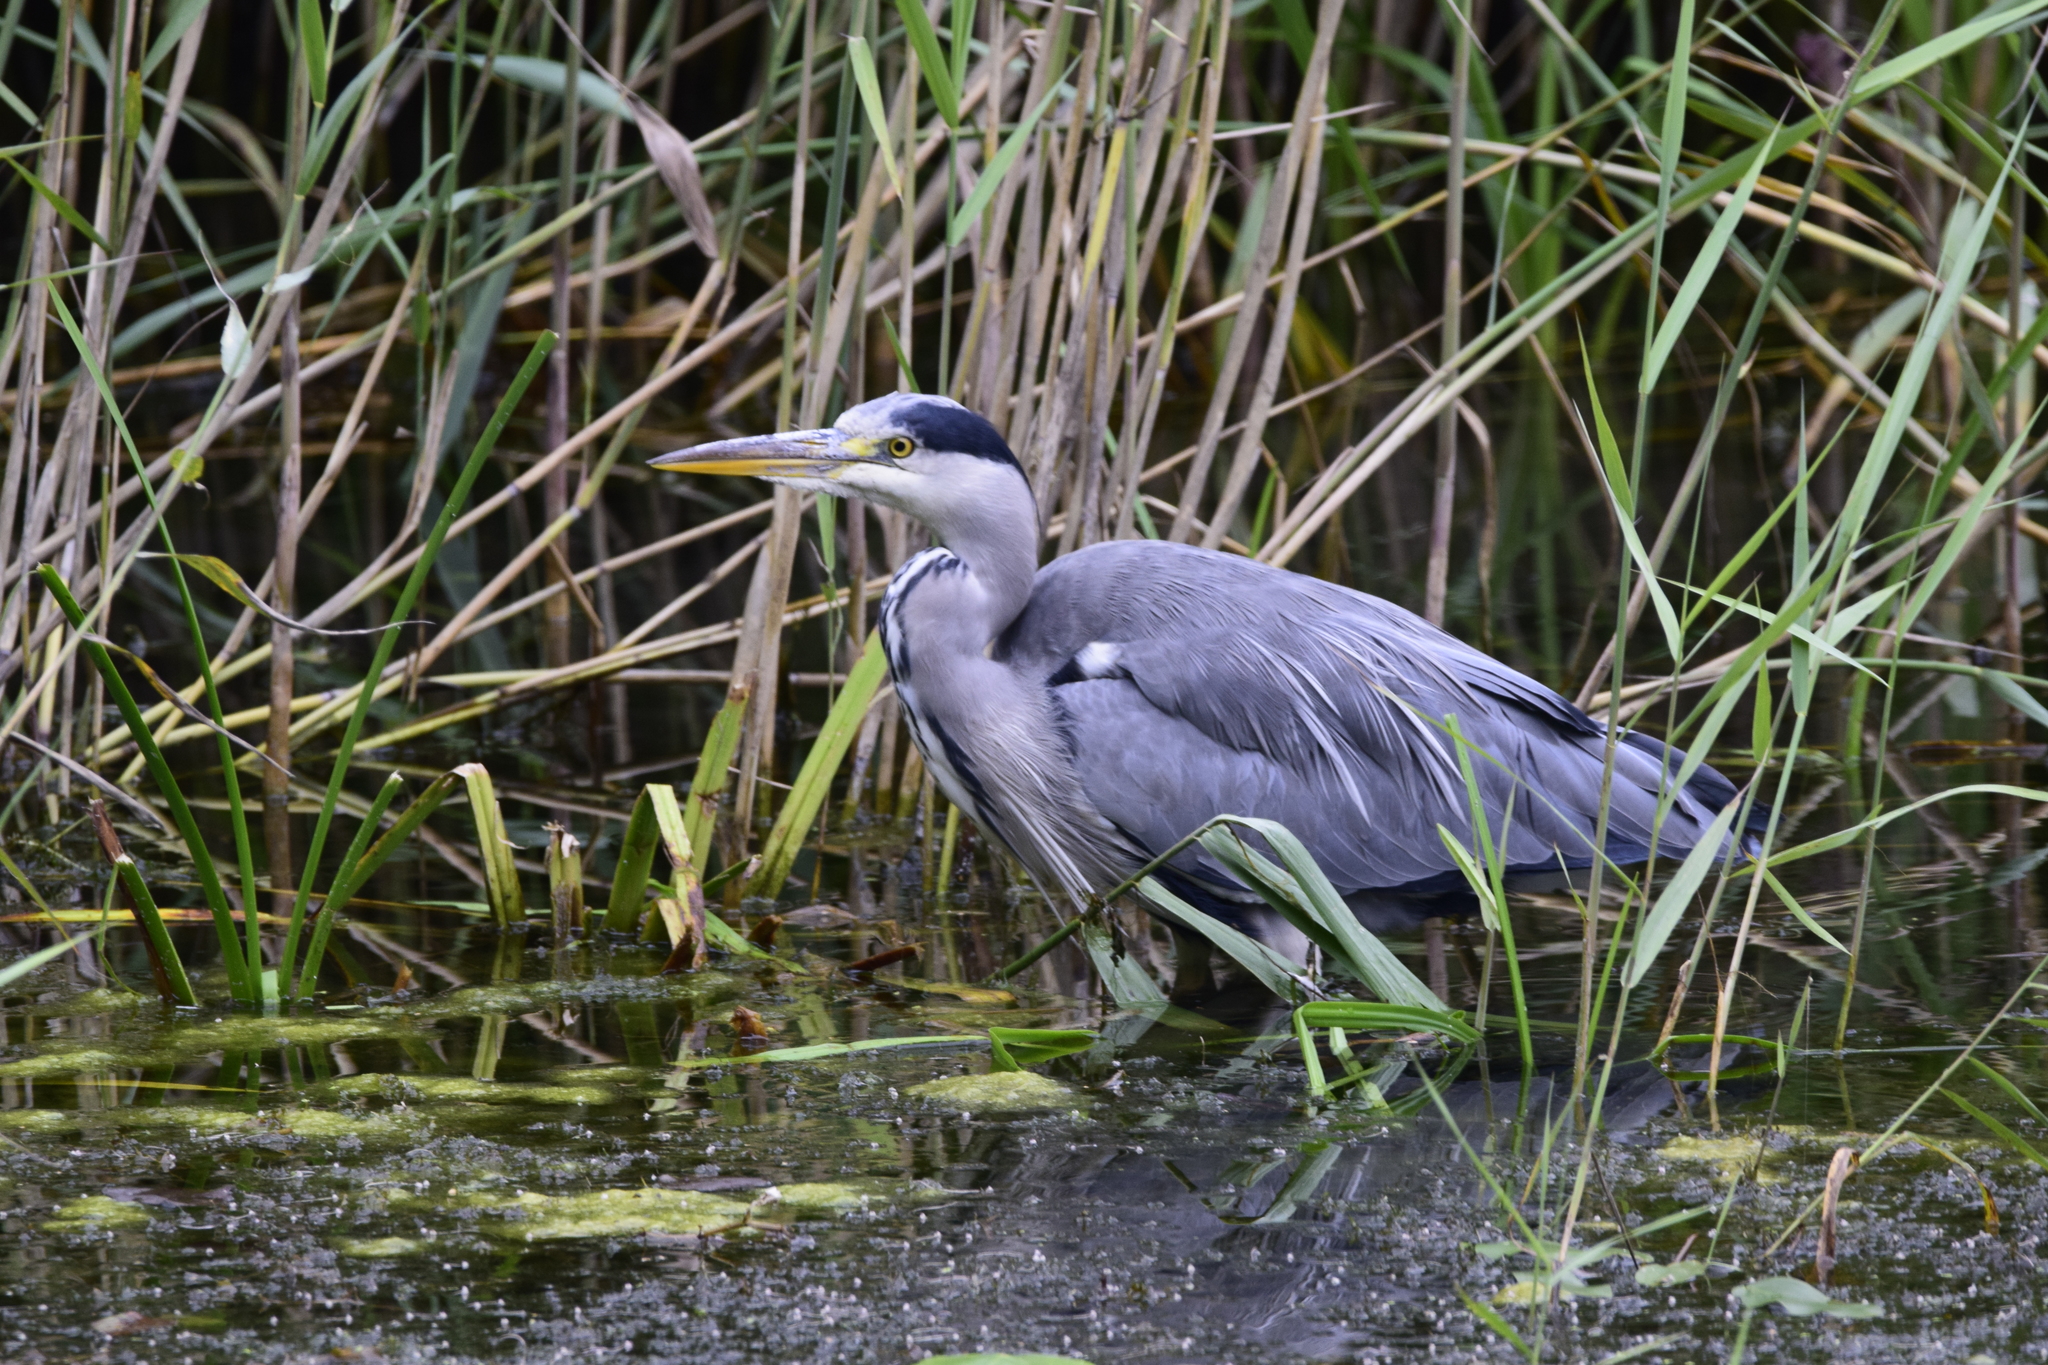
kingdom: Animalia
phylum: Chordata
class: Aves
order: Pelecaniformes
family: Ardeidae
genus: Ardea
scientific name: Ardea cinerea
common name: Grey heron
